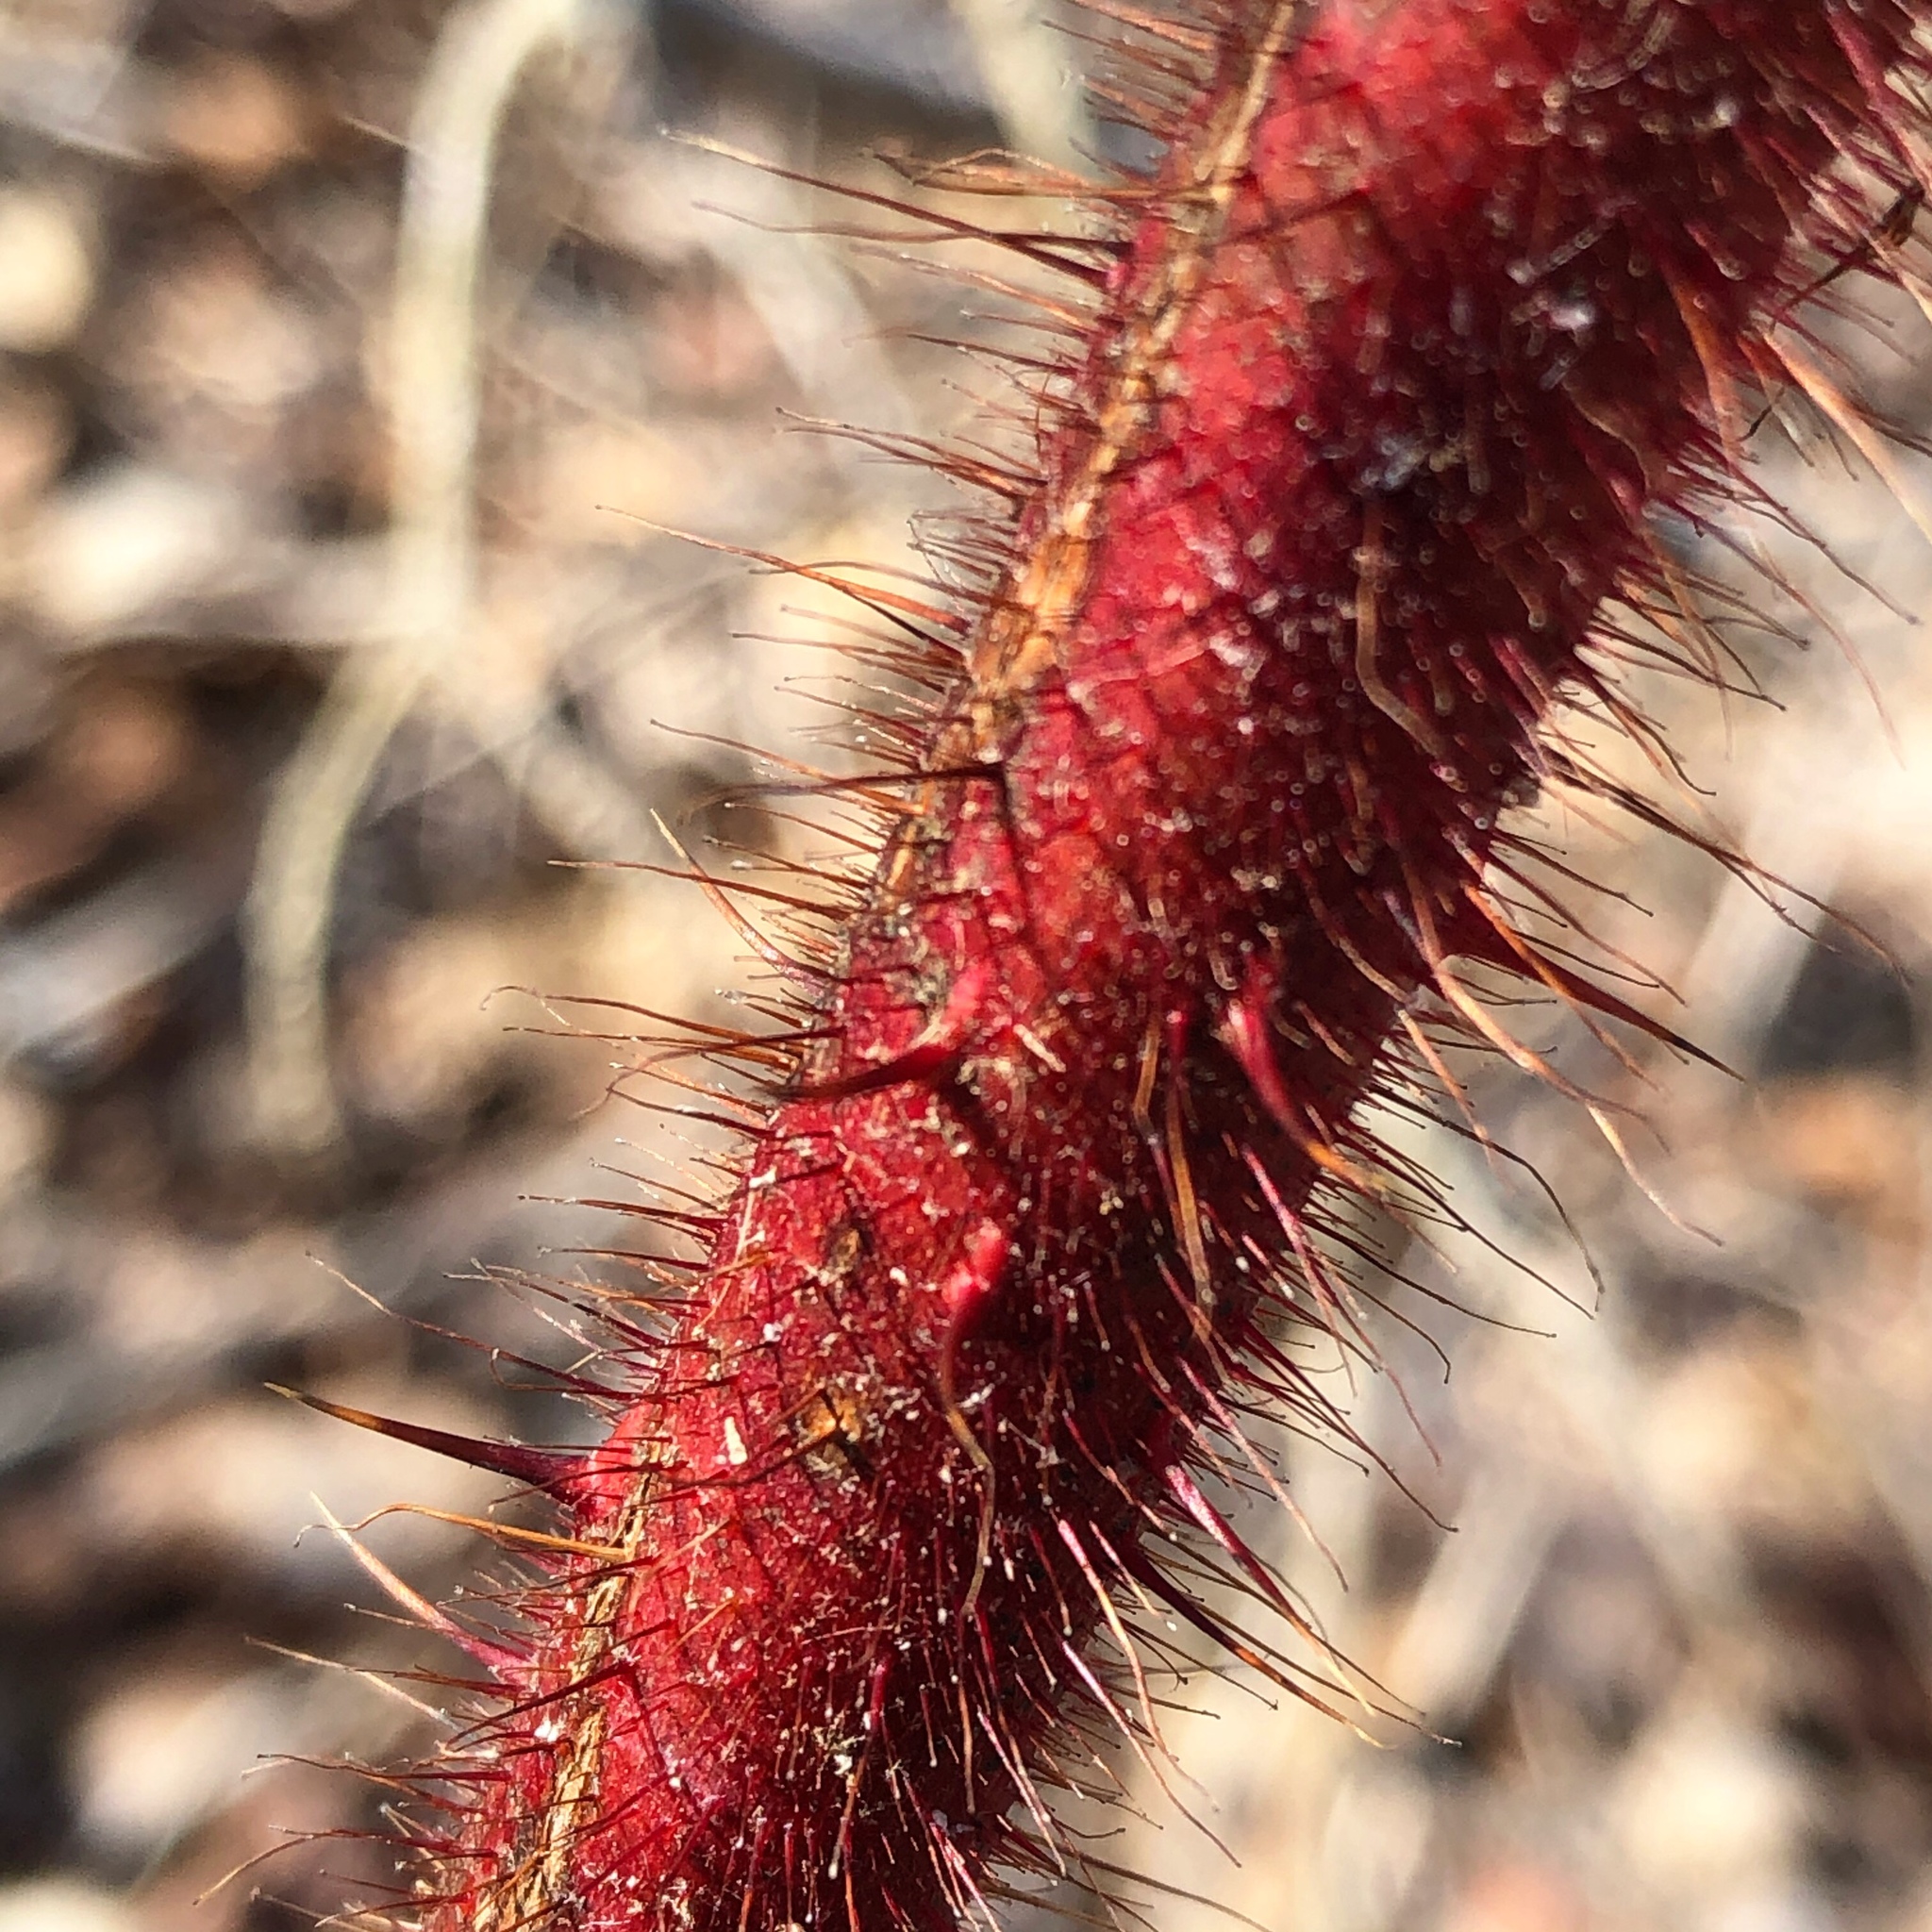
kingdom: Plantae
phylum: Tracheophyta
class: Magnoliopsida
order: Rosales
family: Rosaceae
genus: Rubus
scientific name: Rubus phoenicolasius
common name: Japanese wineberry
